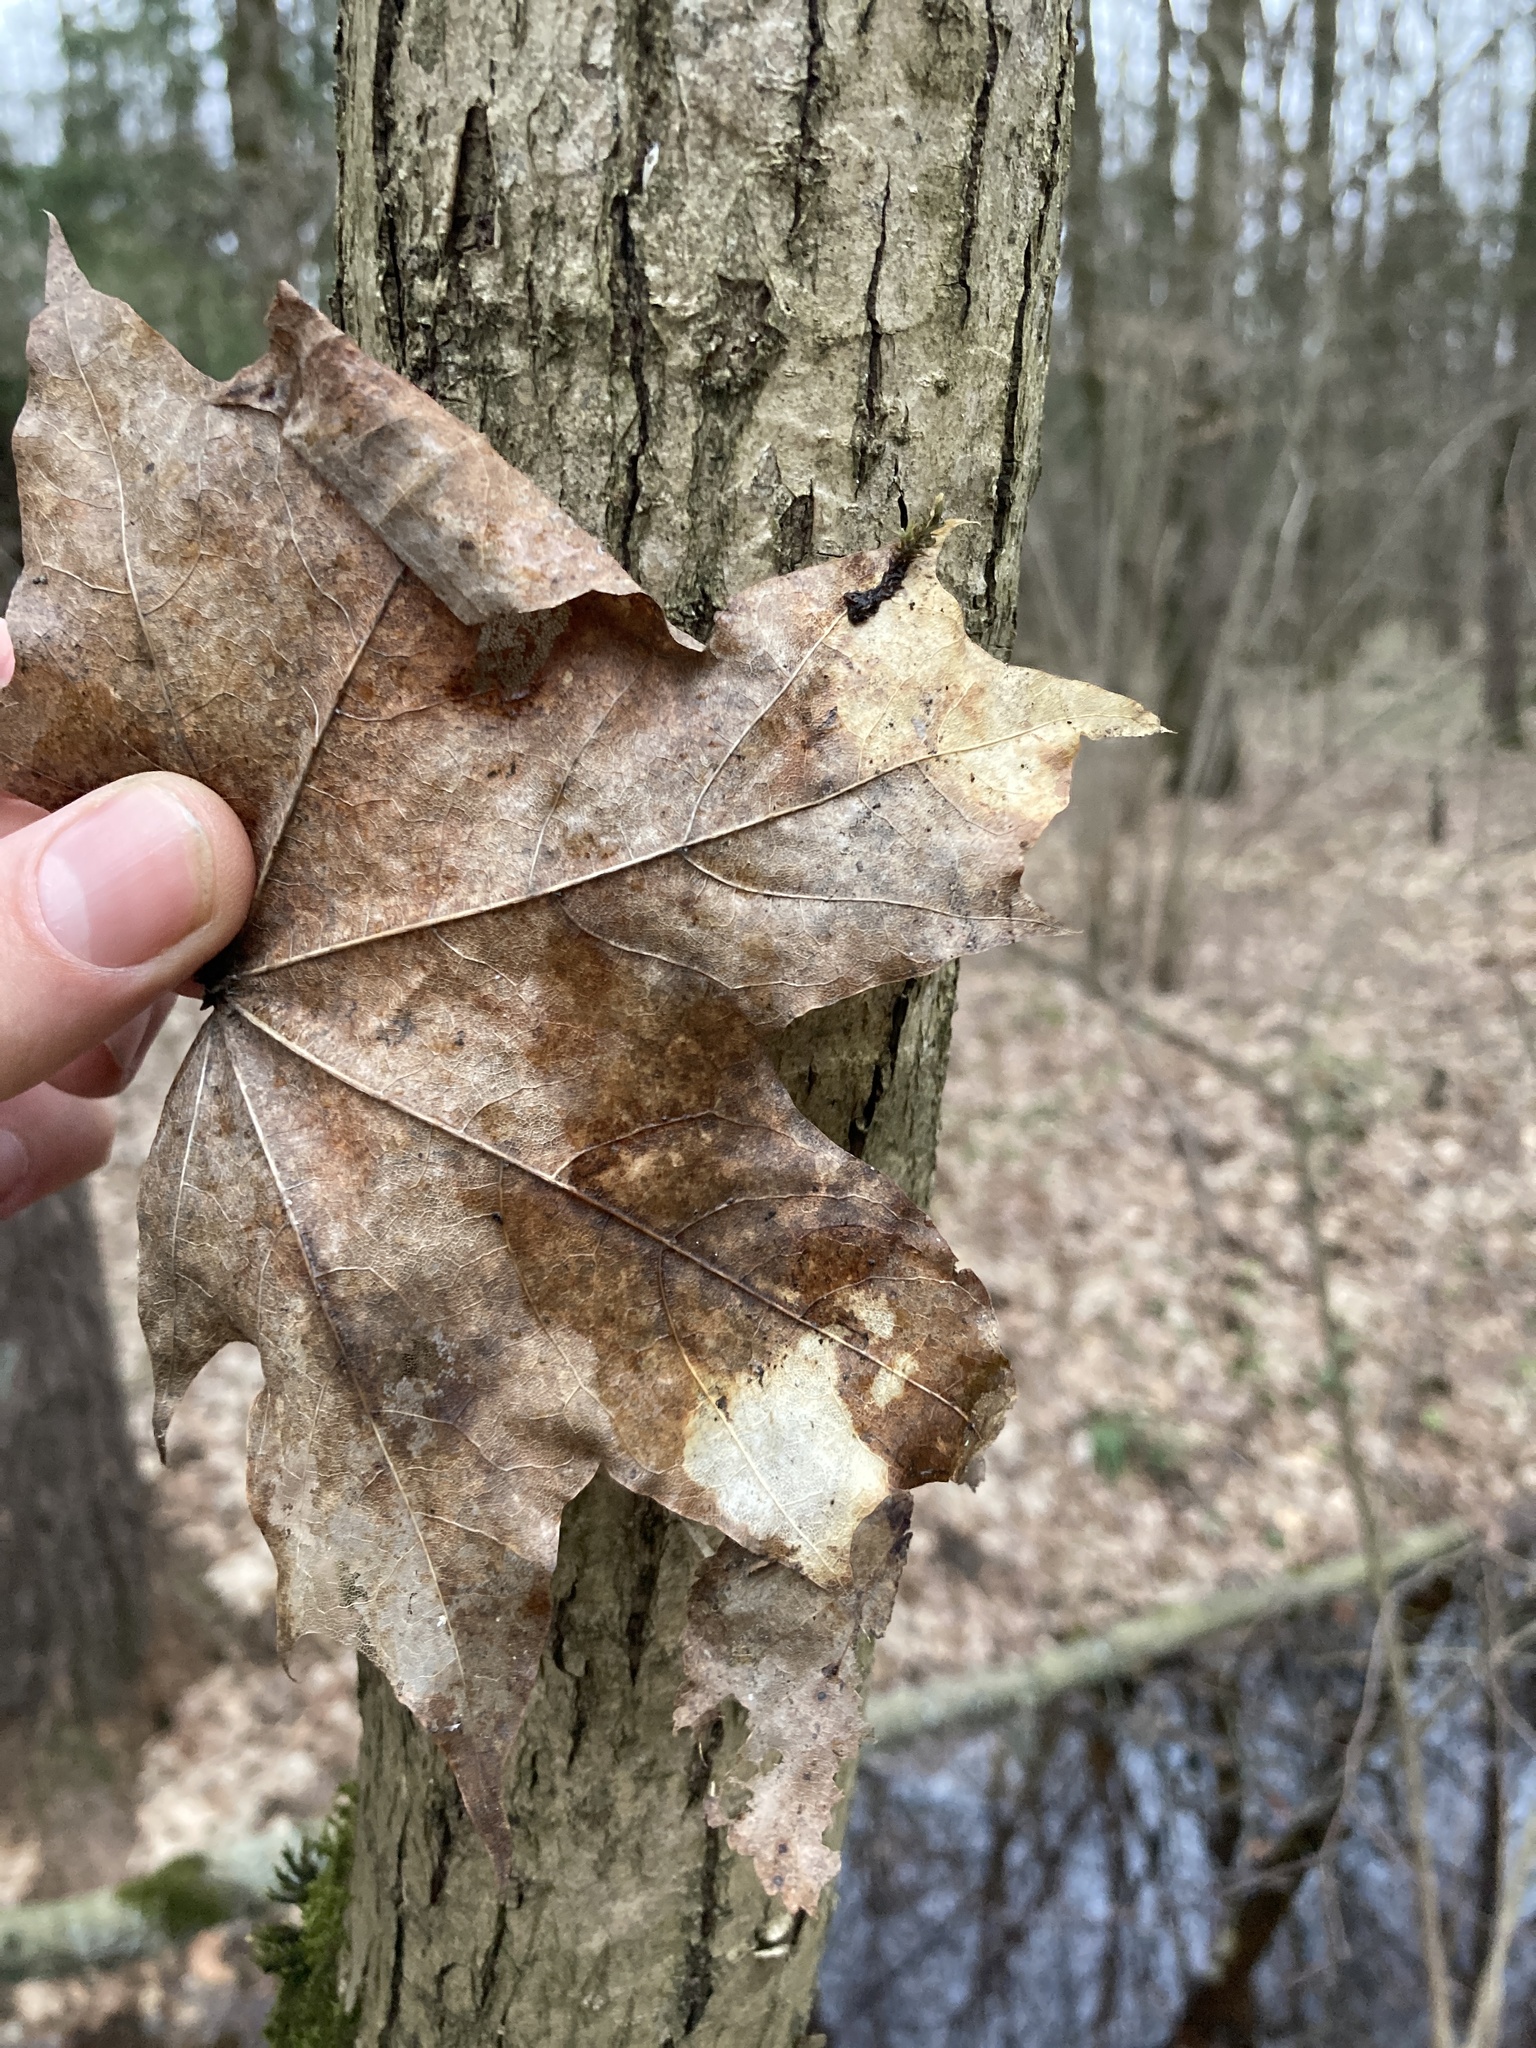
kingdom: Plantae
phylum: Tracheophyta
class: Magnoliopsida
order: Sapindales
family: Sapindaceae
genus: Acer
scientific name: Acer platanoides
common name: Norway maple
